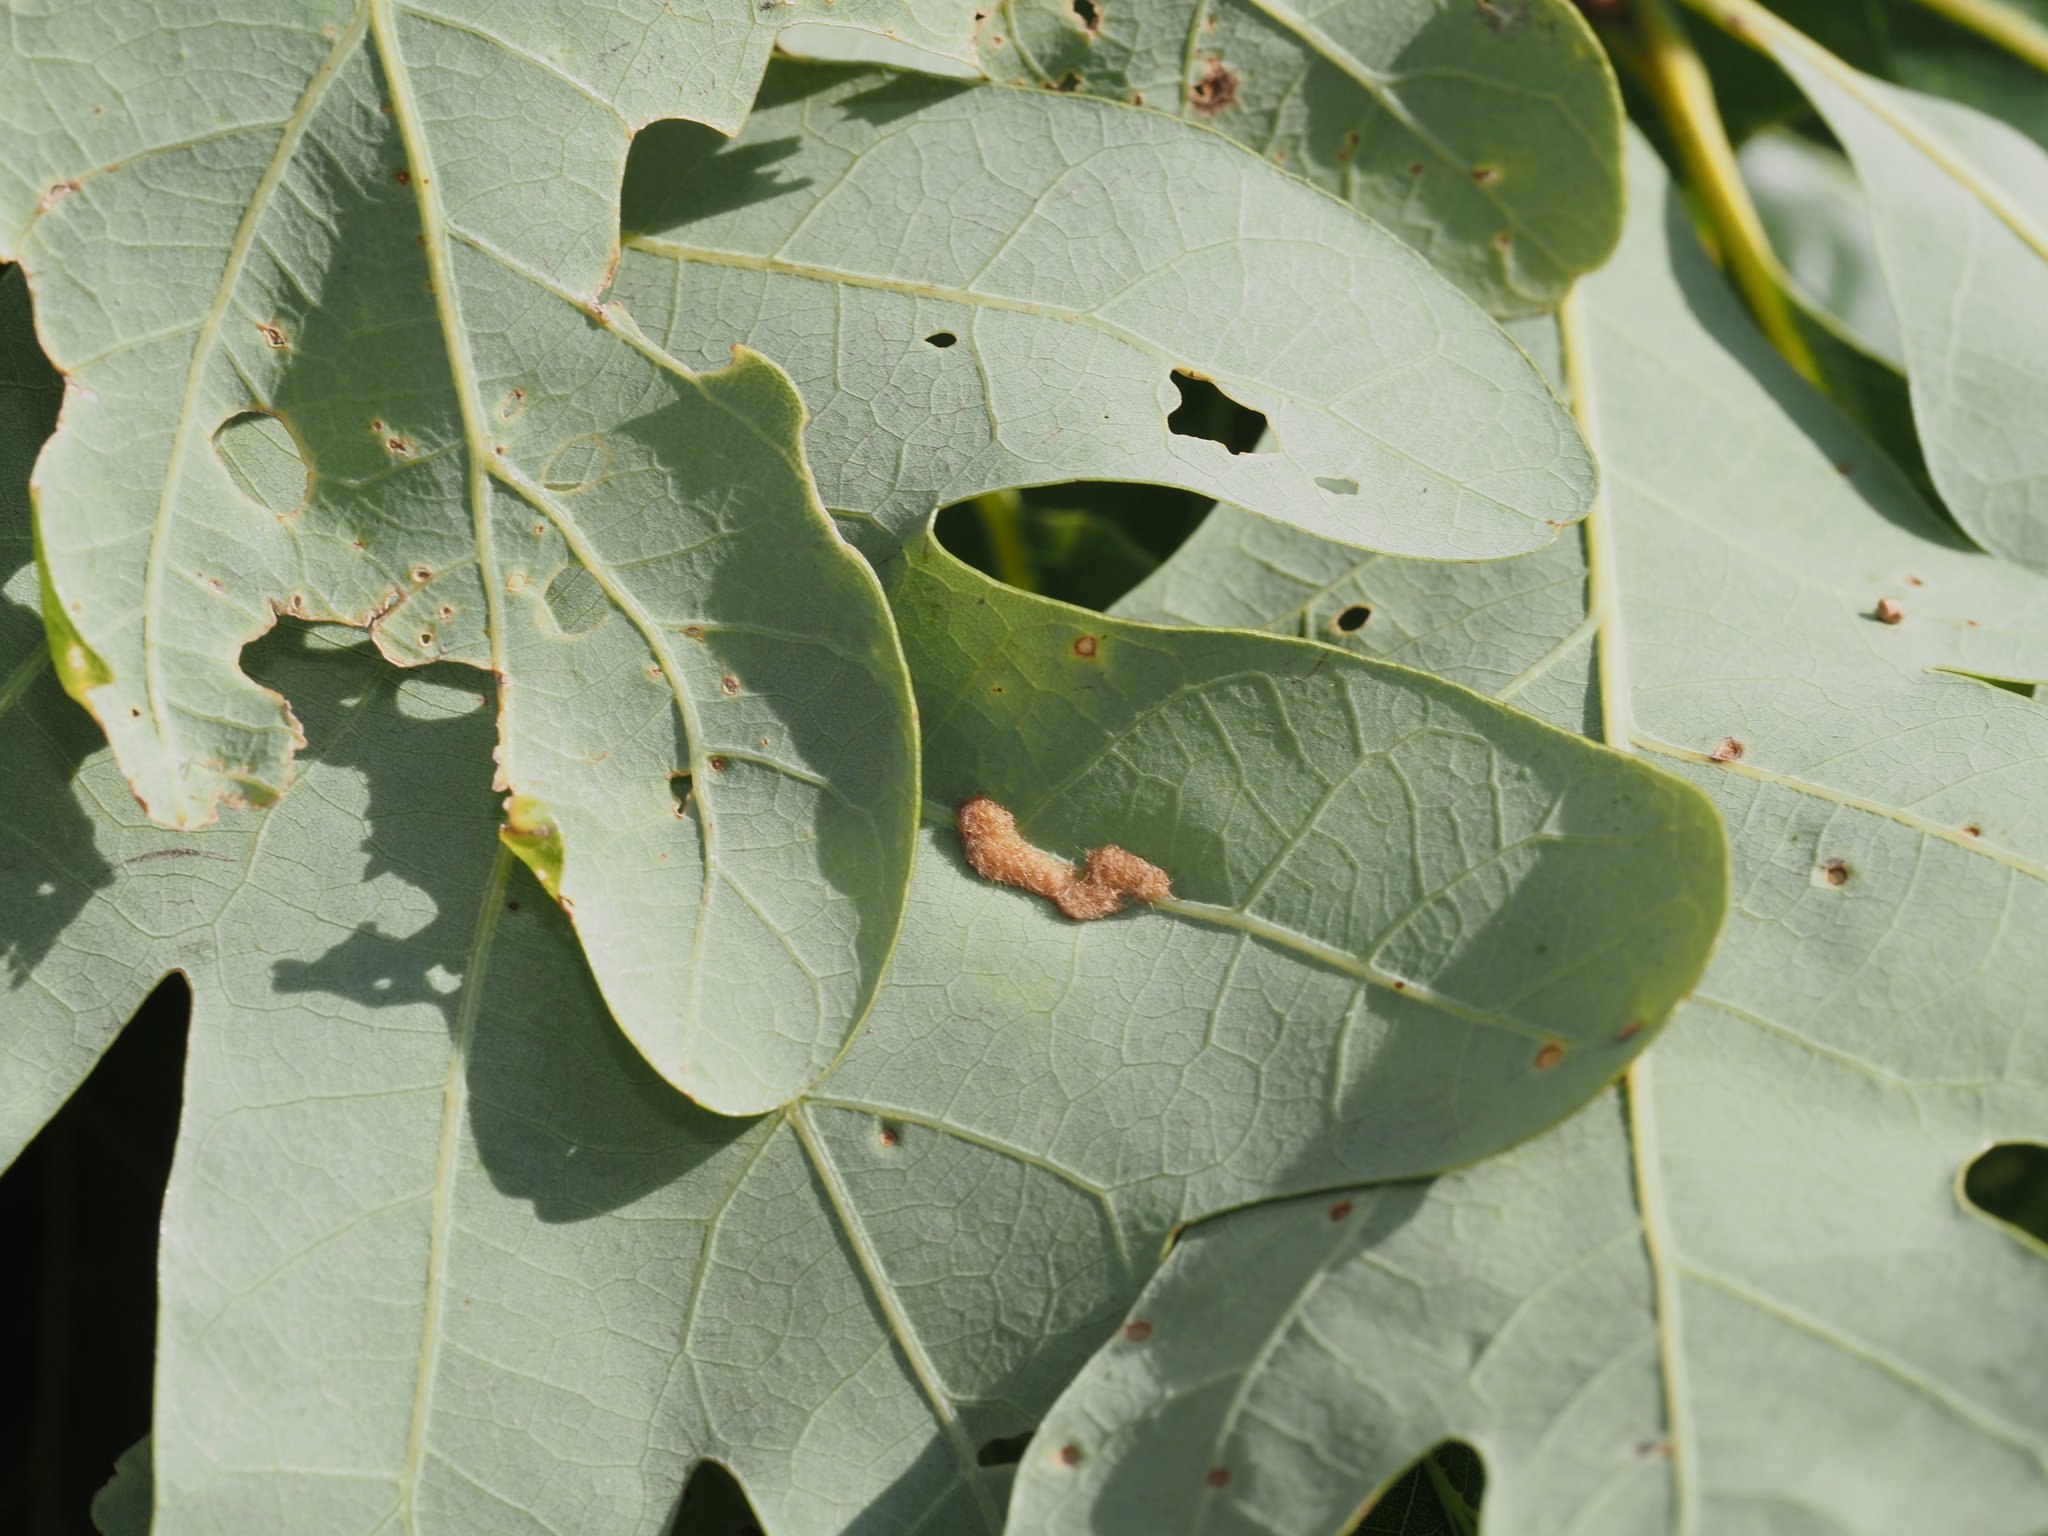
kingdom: Animalia
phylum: Arthropoda
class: Insecta
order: Hymenoptera
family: Cynipidae
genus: Neuroterus
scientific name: Neuroterus quercusverrucarum
